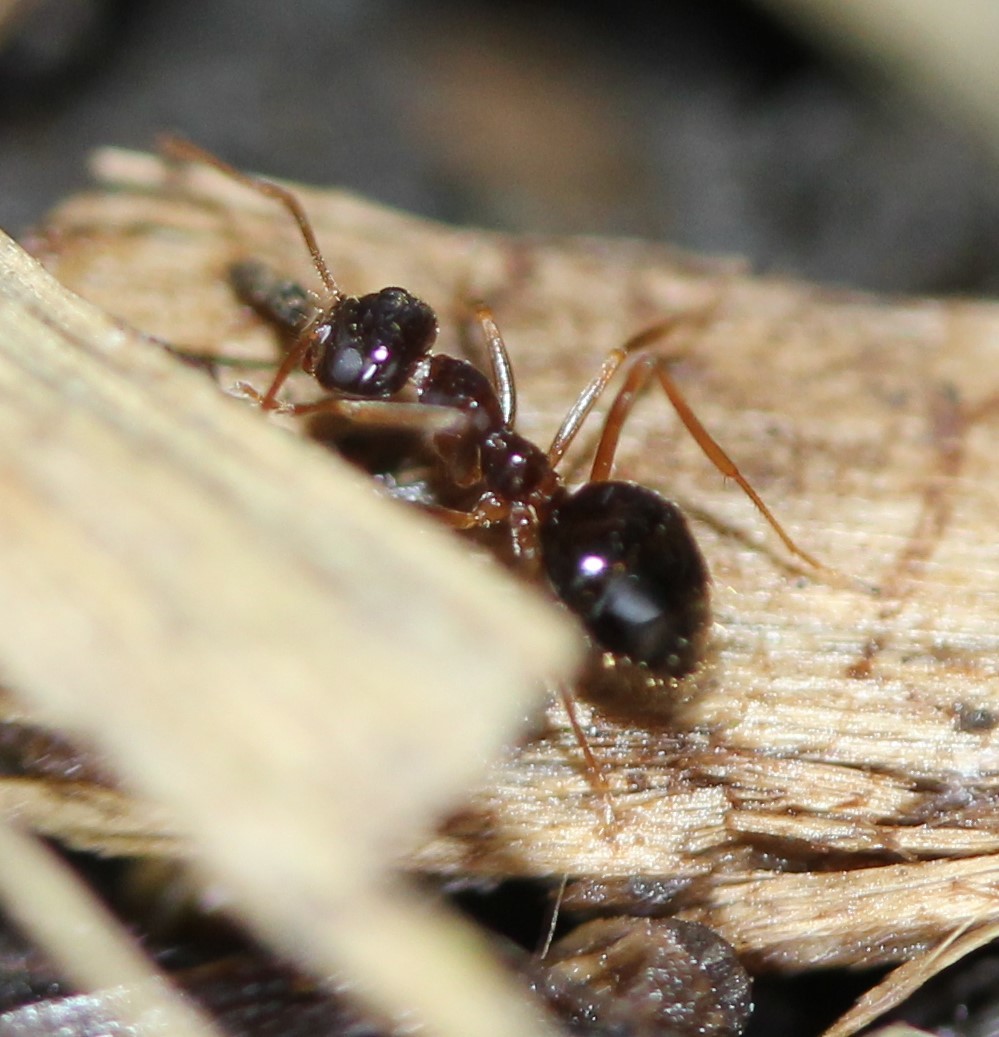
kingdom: Animalia
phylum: Arthropoda
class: Insecta
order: Hymenoptera
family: Formicidae
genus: Prenolepis
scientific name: Prenolepis imparis
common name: Small honey ant
